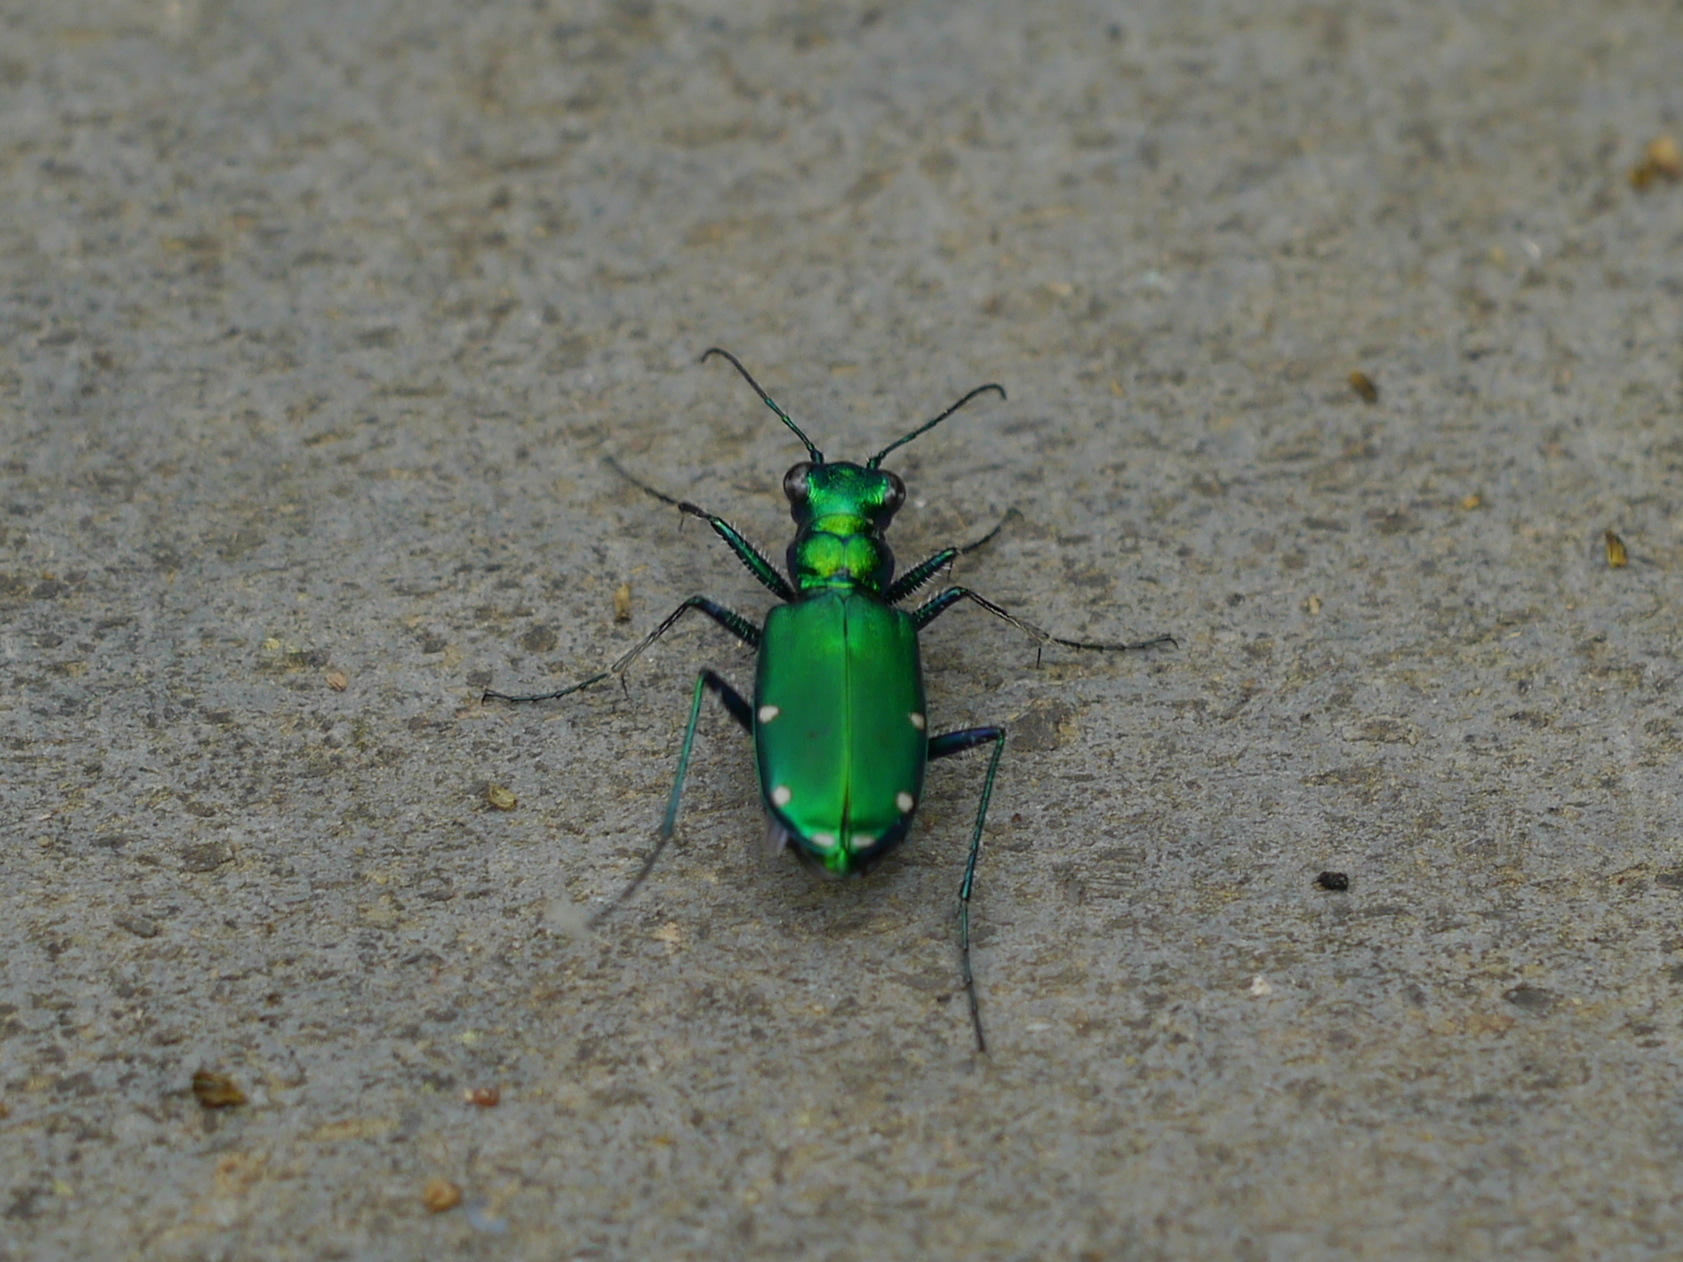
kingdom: Animalia
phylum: Arthropoda
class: Insecta
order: Coleoptera
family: Carabidae
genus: Cicindela
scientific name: Cicindela sexguttata
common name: Six-spotted tiger beetle
